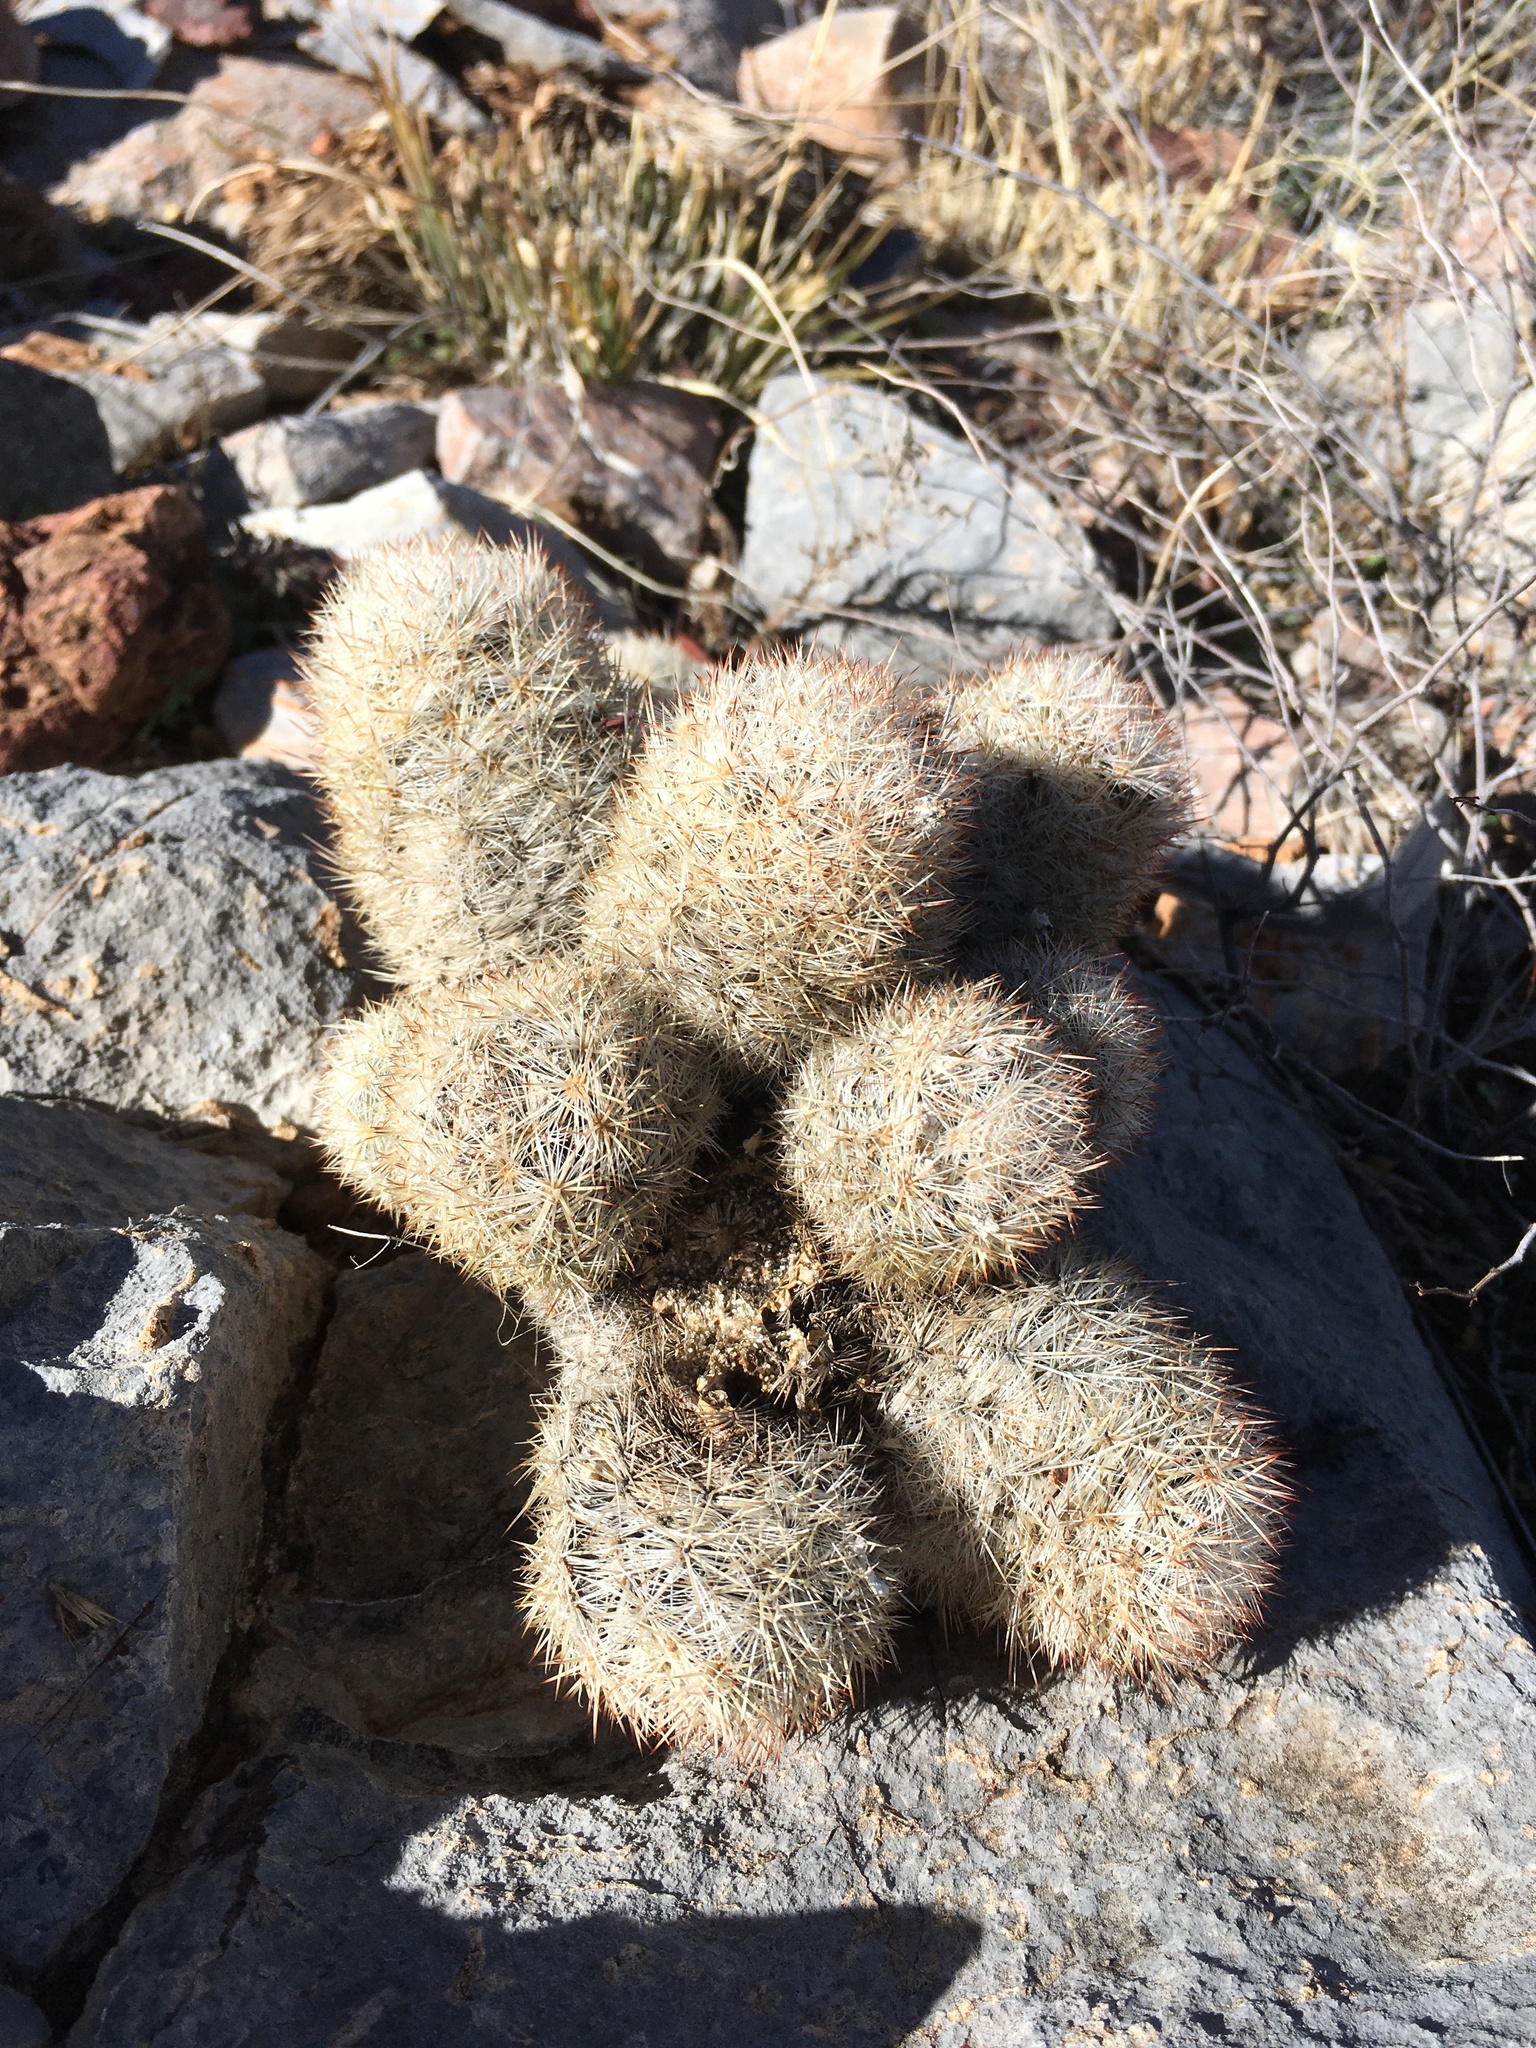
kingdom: Plantae
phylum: Tracheophyta
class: Magnoliopsida
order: Caryophyllales
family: Cactaceae
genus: Pelecyphora
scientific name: Pelecyphora sneedii
